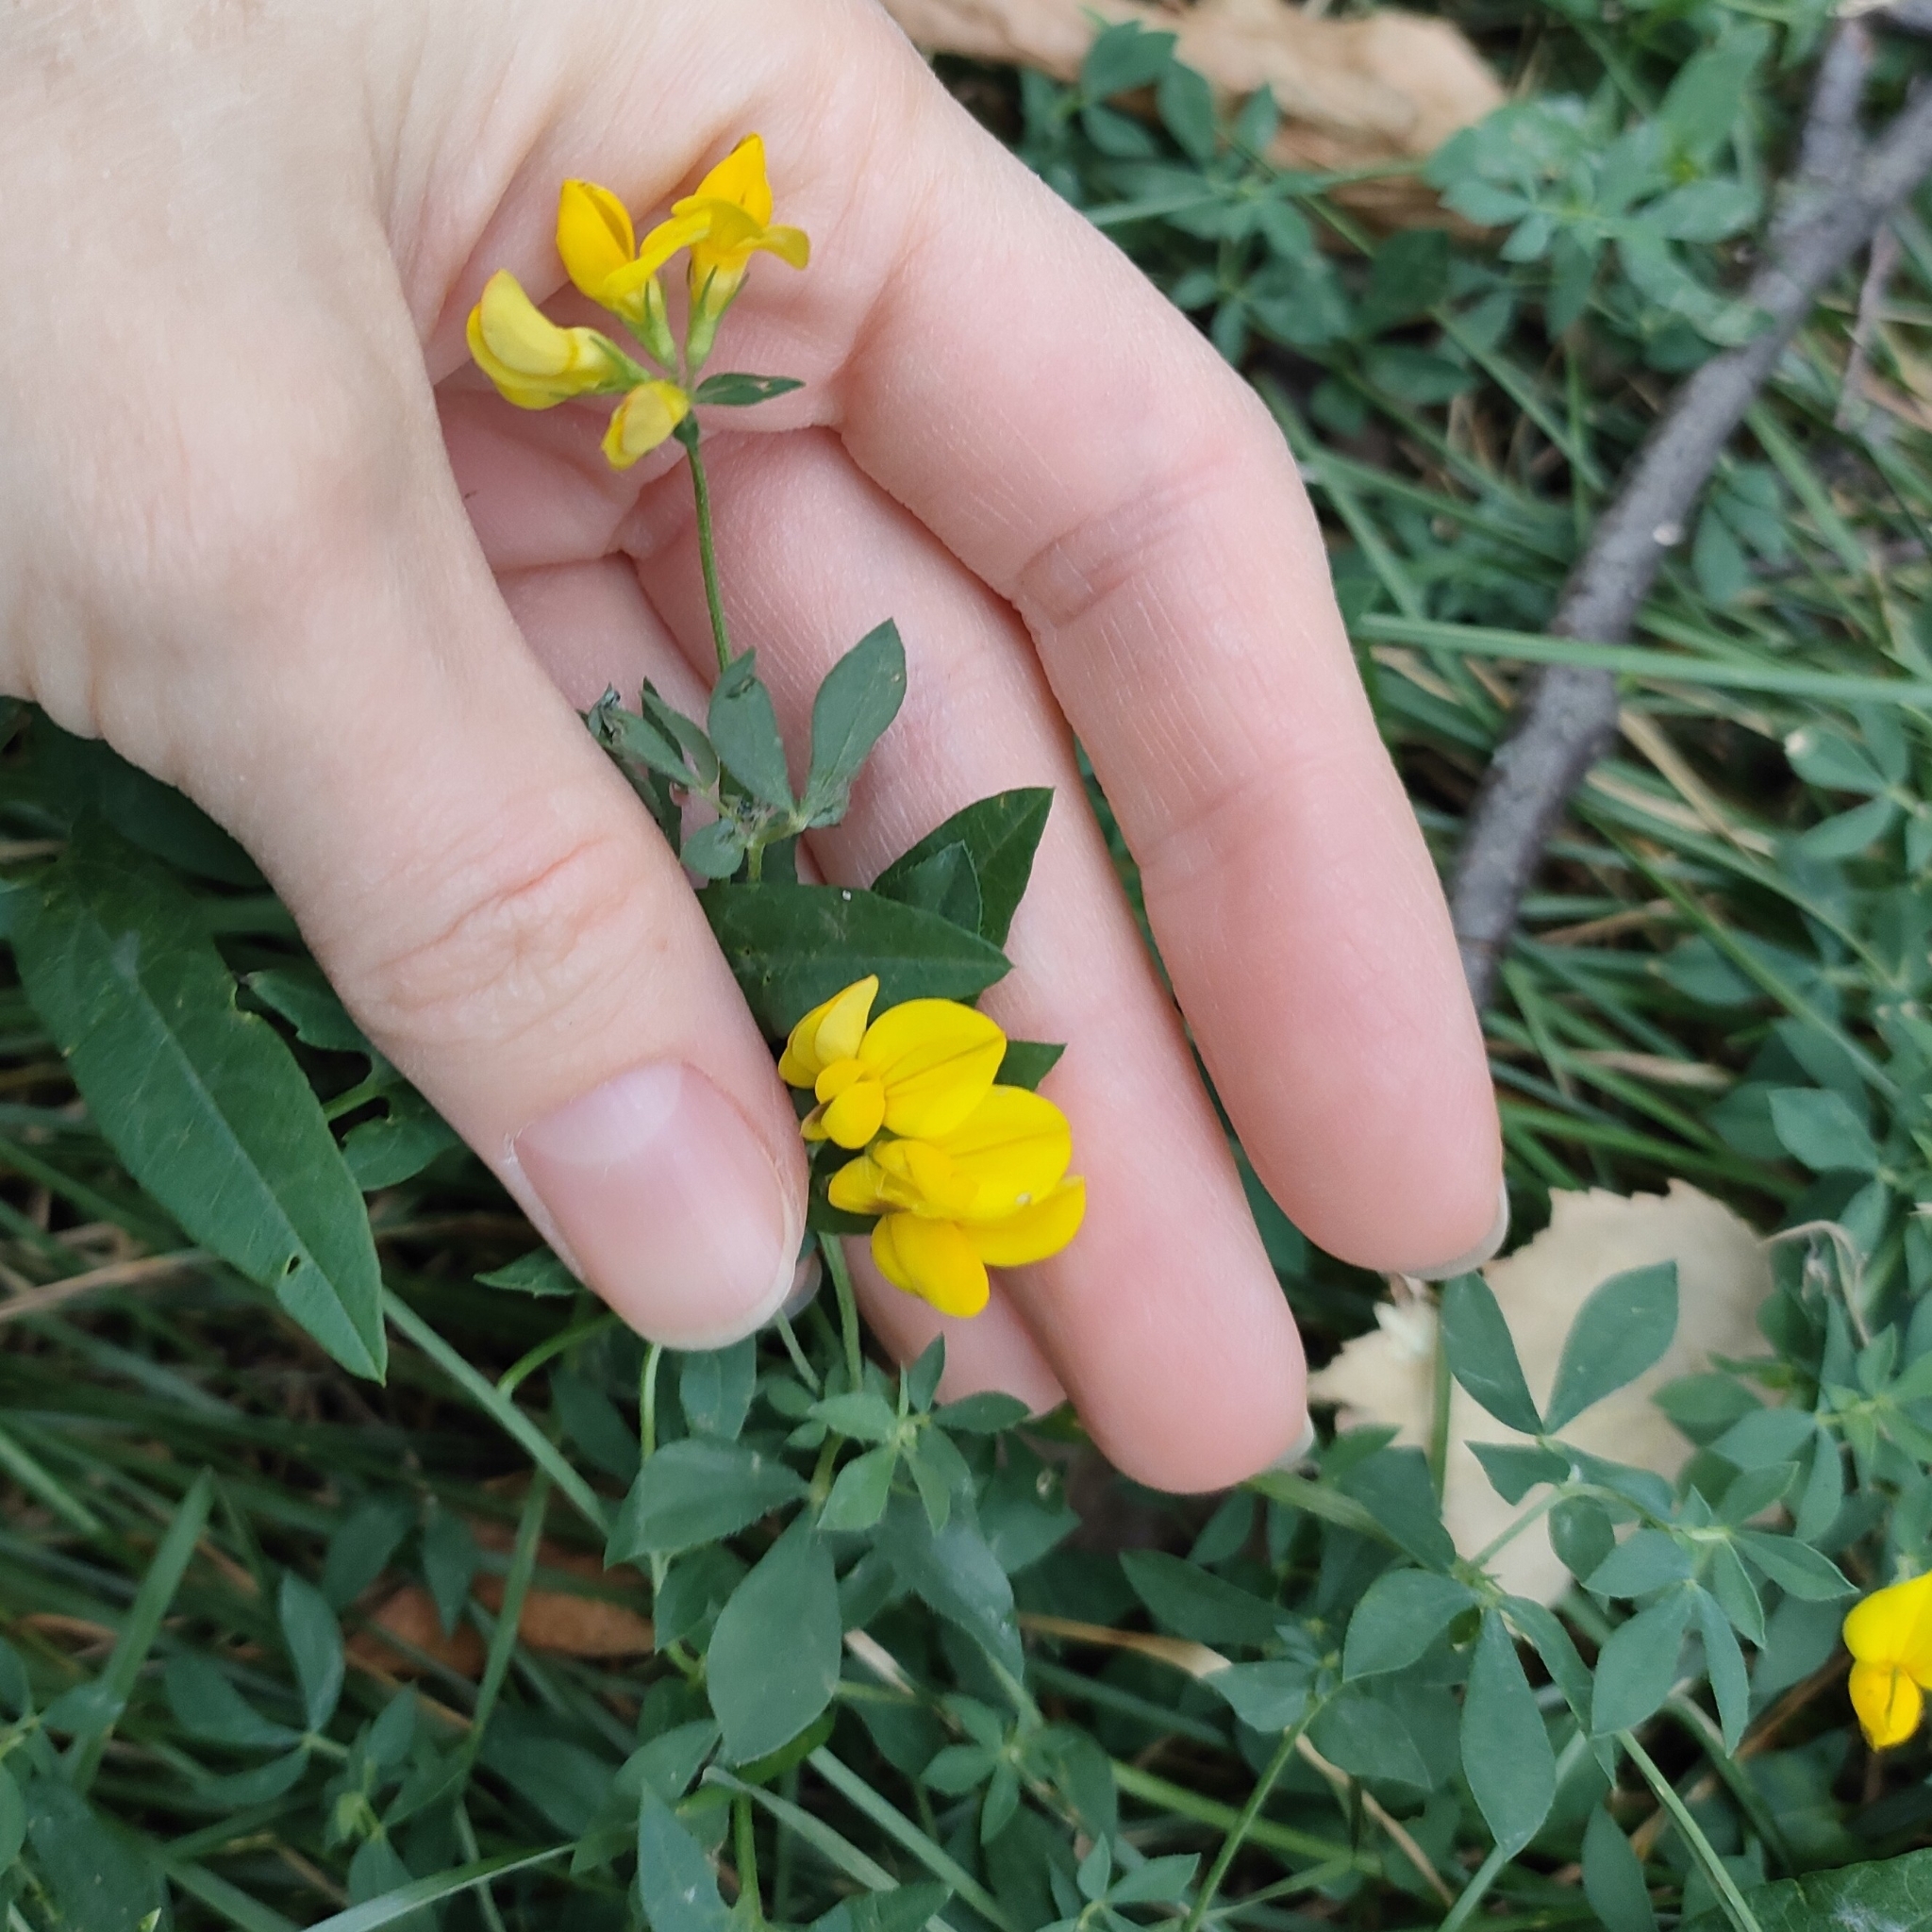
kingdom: Plantae
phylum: Tracheophyta
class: Magnoliopsida
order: Fabales
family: Fabaceae
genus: Lotus
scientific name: Lotus corniculatus
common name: Common bird's-foot-trefoil
